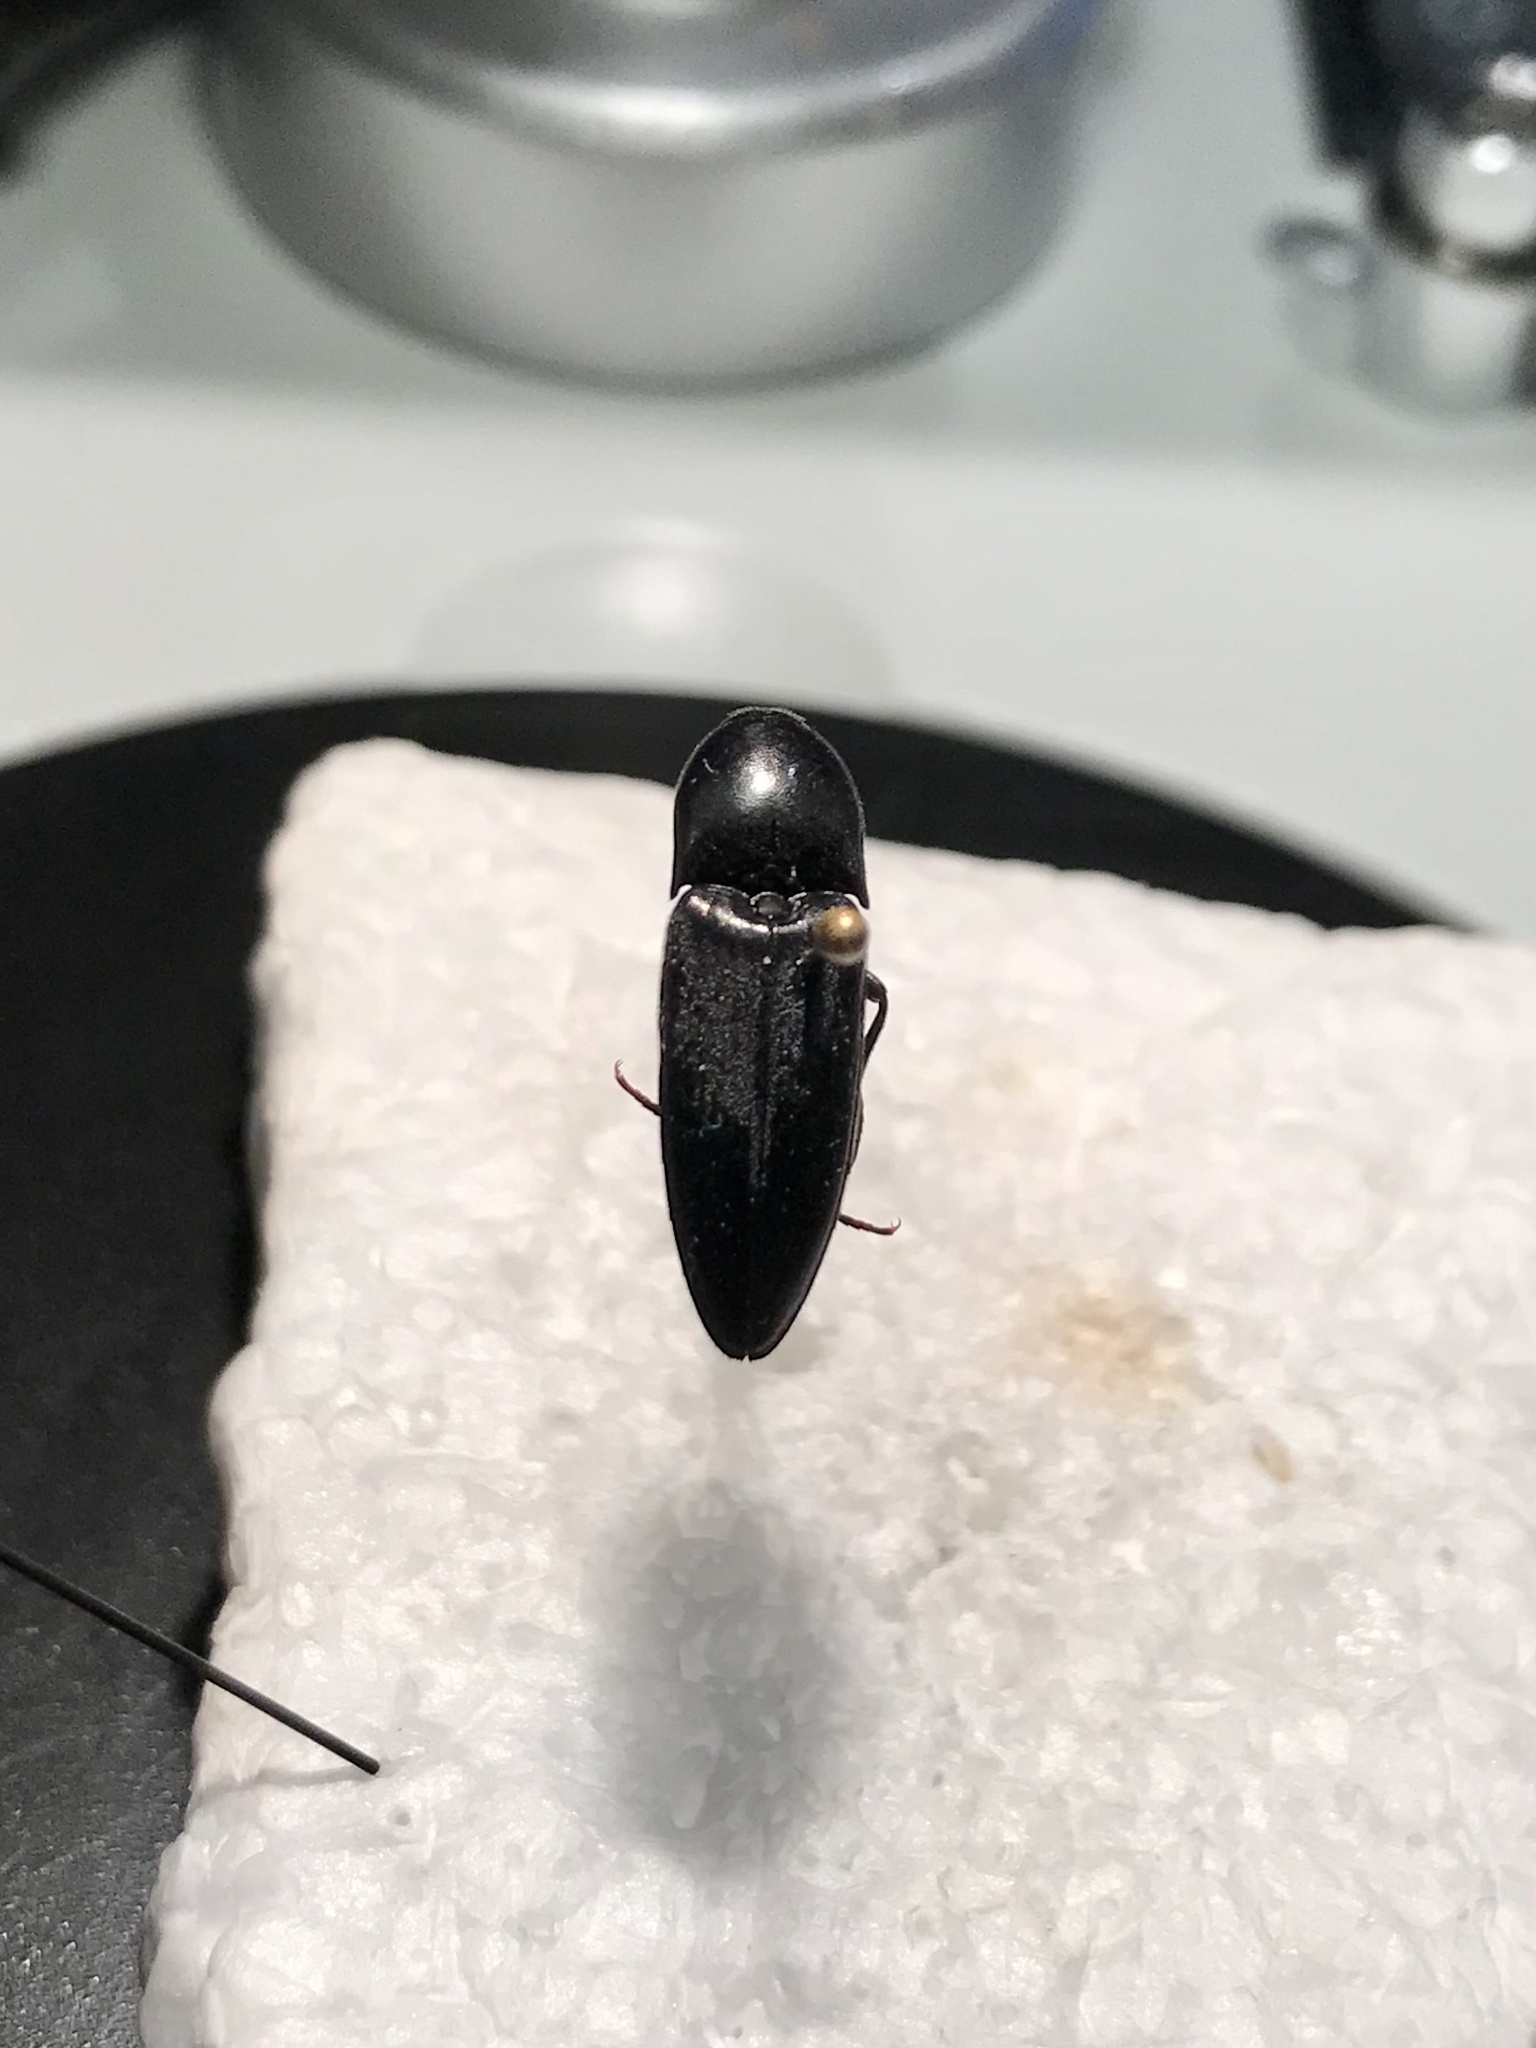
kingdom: Animalia
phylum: Arthropoda
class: Insecta
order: Coleoptera
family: Elateridae
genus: Elater
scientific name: Elater abruptus
